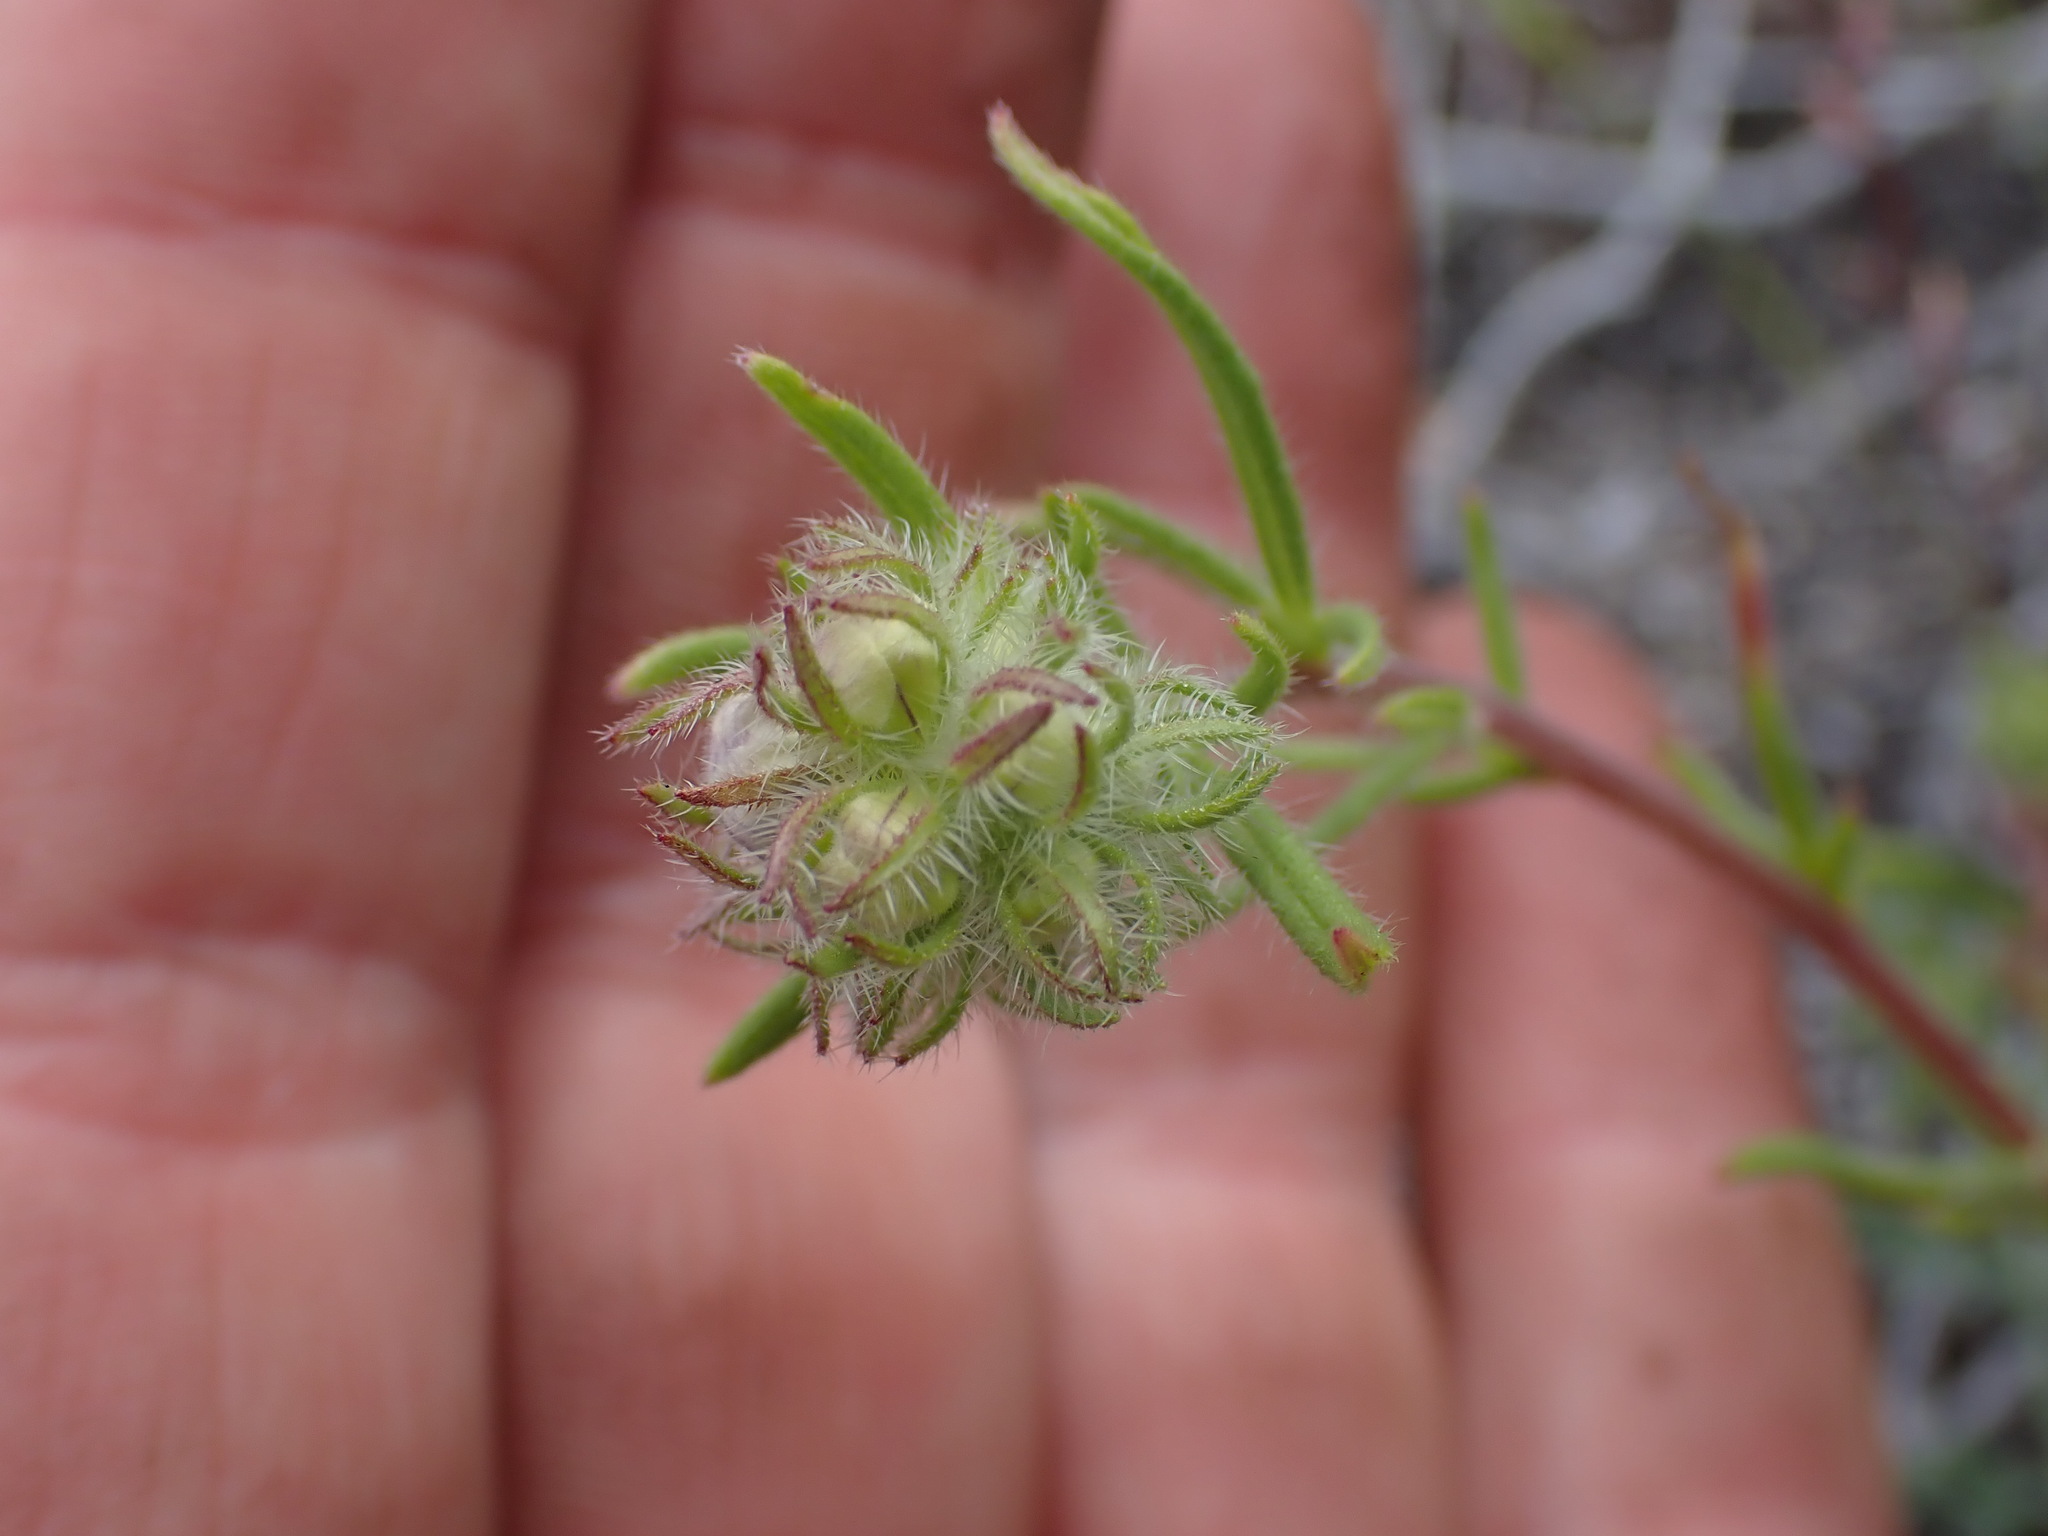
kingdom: Plantae
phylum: Tracheophyta
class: Magnoliopsida
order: Boraginales
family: Hydrophyllaceae
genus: Phacelia
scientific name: Phacelia linearis
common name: Linear-leaved phacelia
